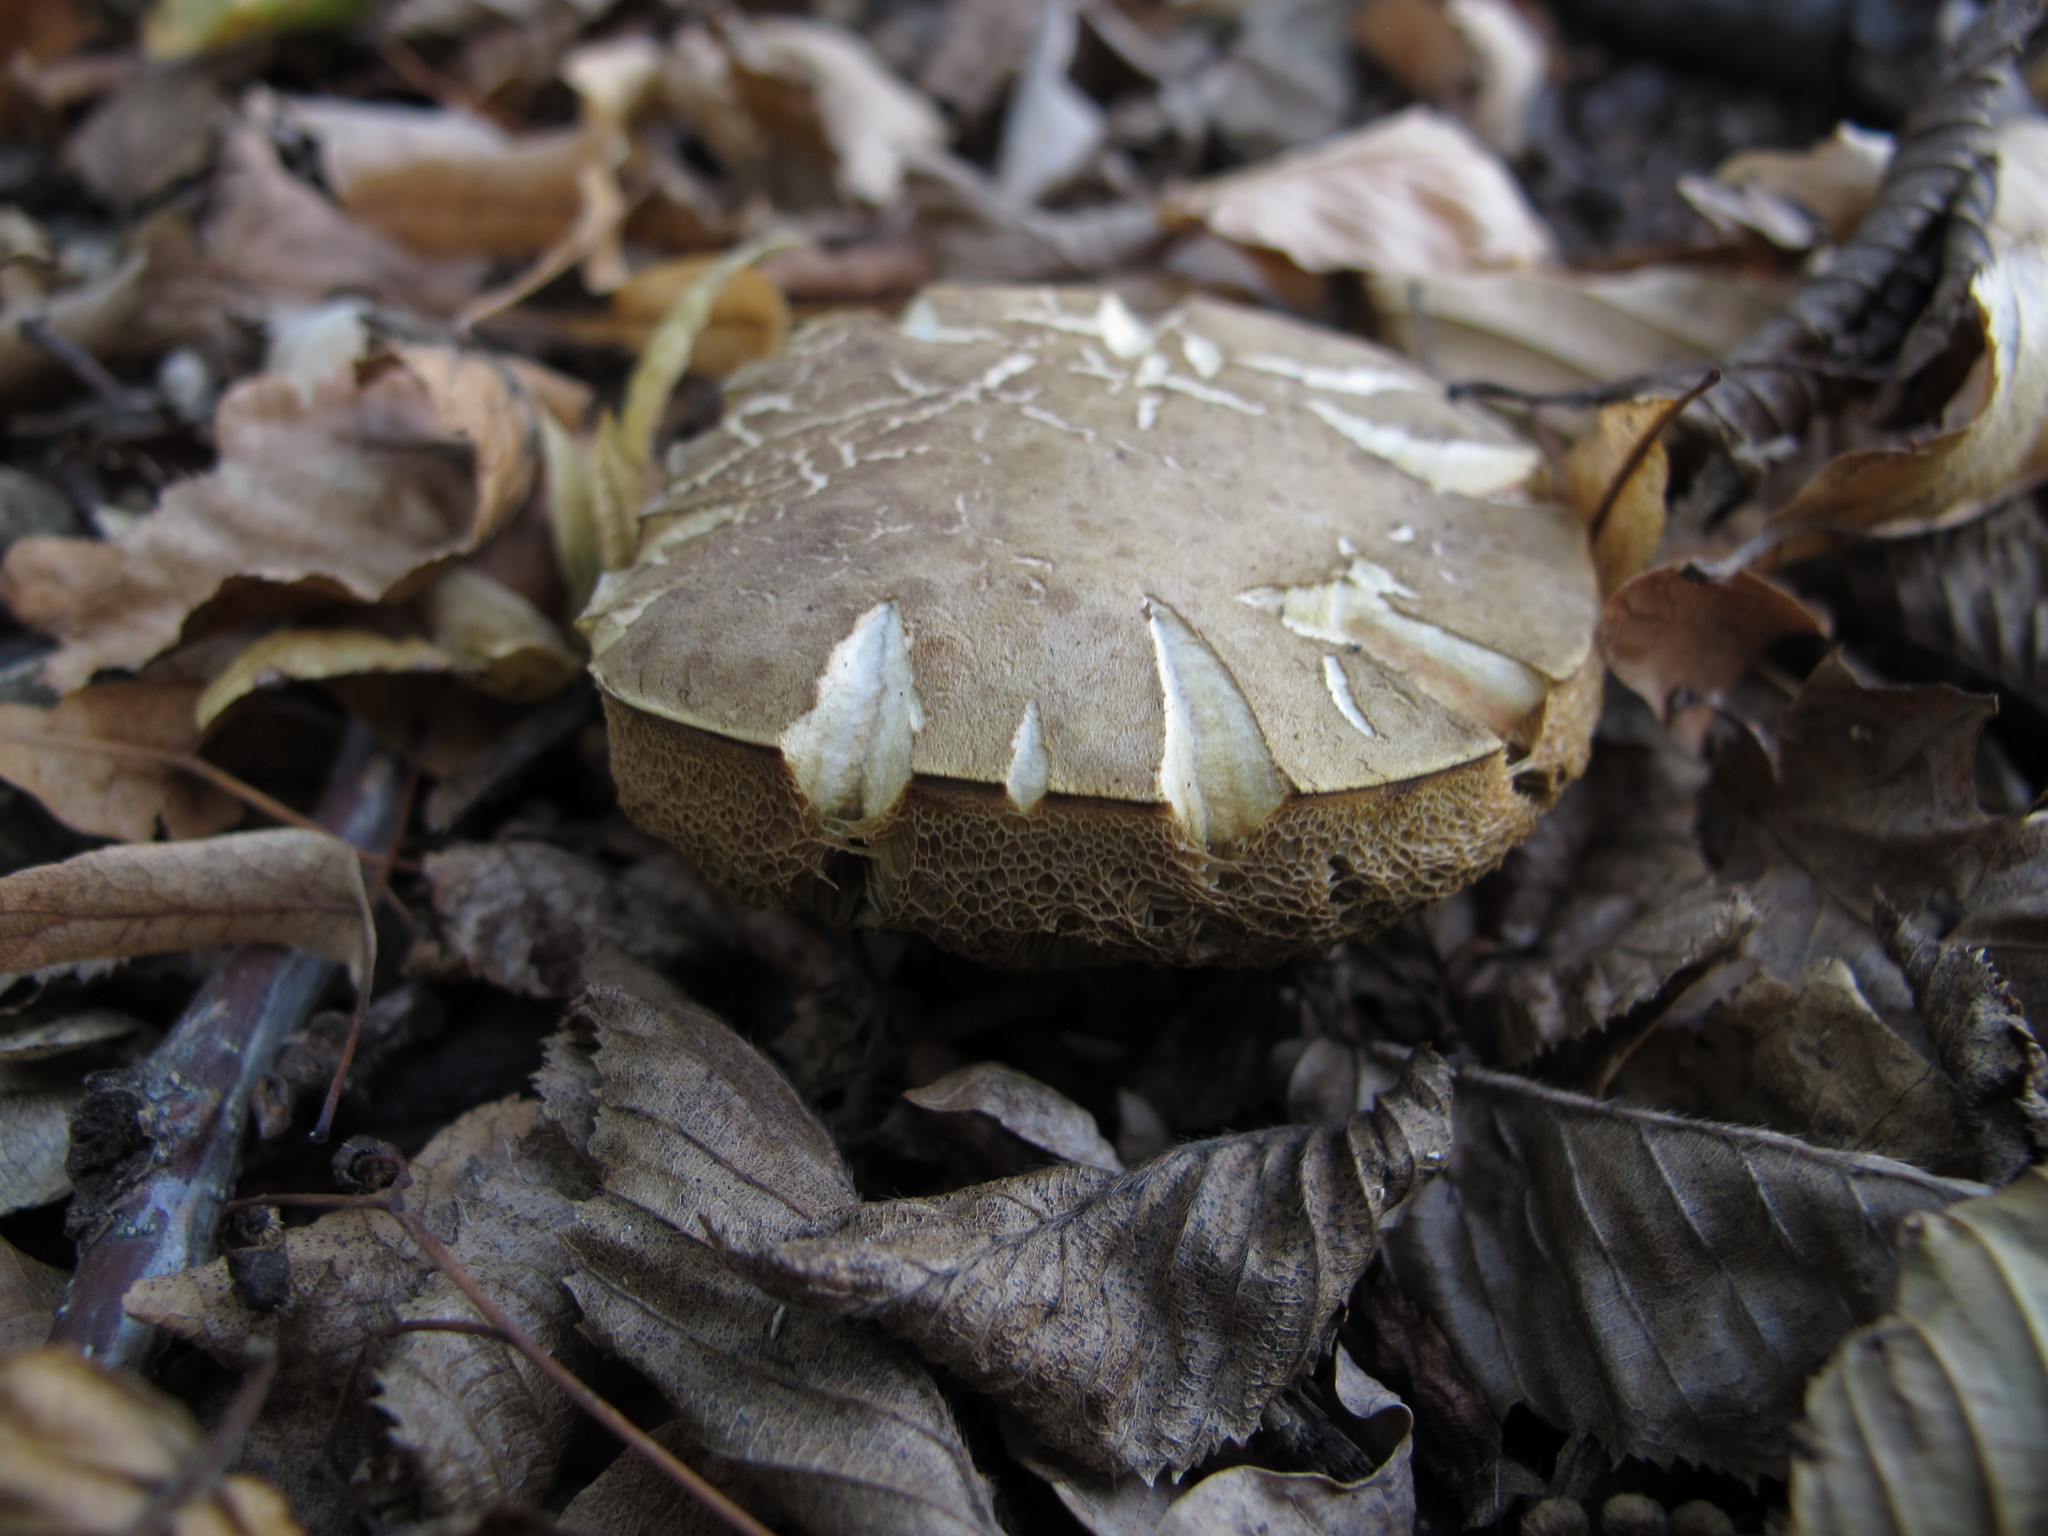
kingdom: Fungi
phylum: Basidiomycota
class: Agaricomycetes
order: Boletales
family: Boletaceae
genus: Xerocomellus
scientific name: Xerocomellus chrysenteron
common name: Red-cracking bolete
